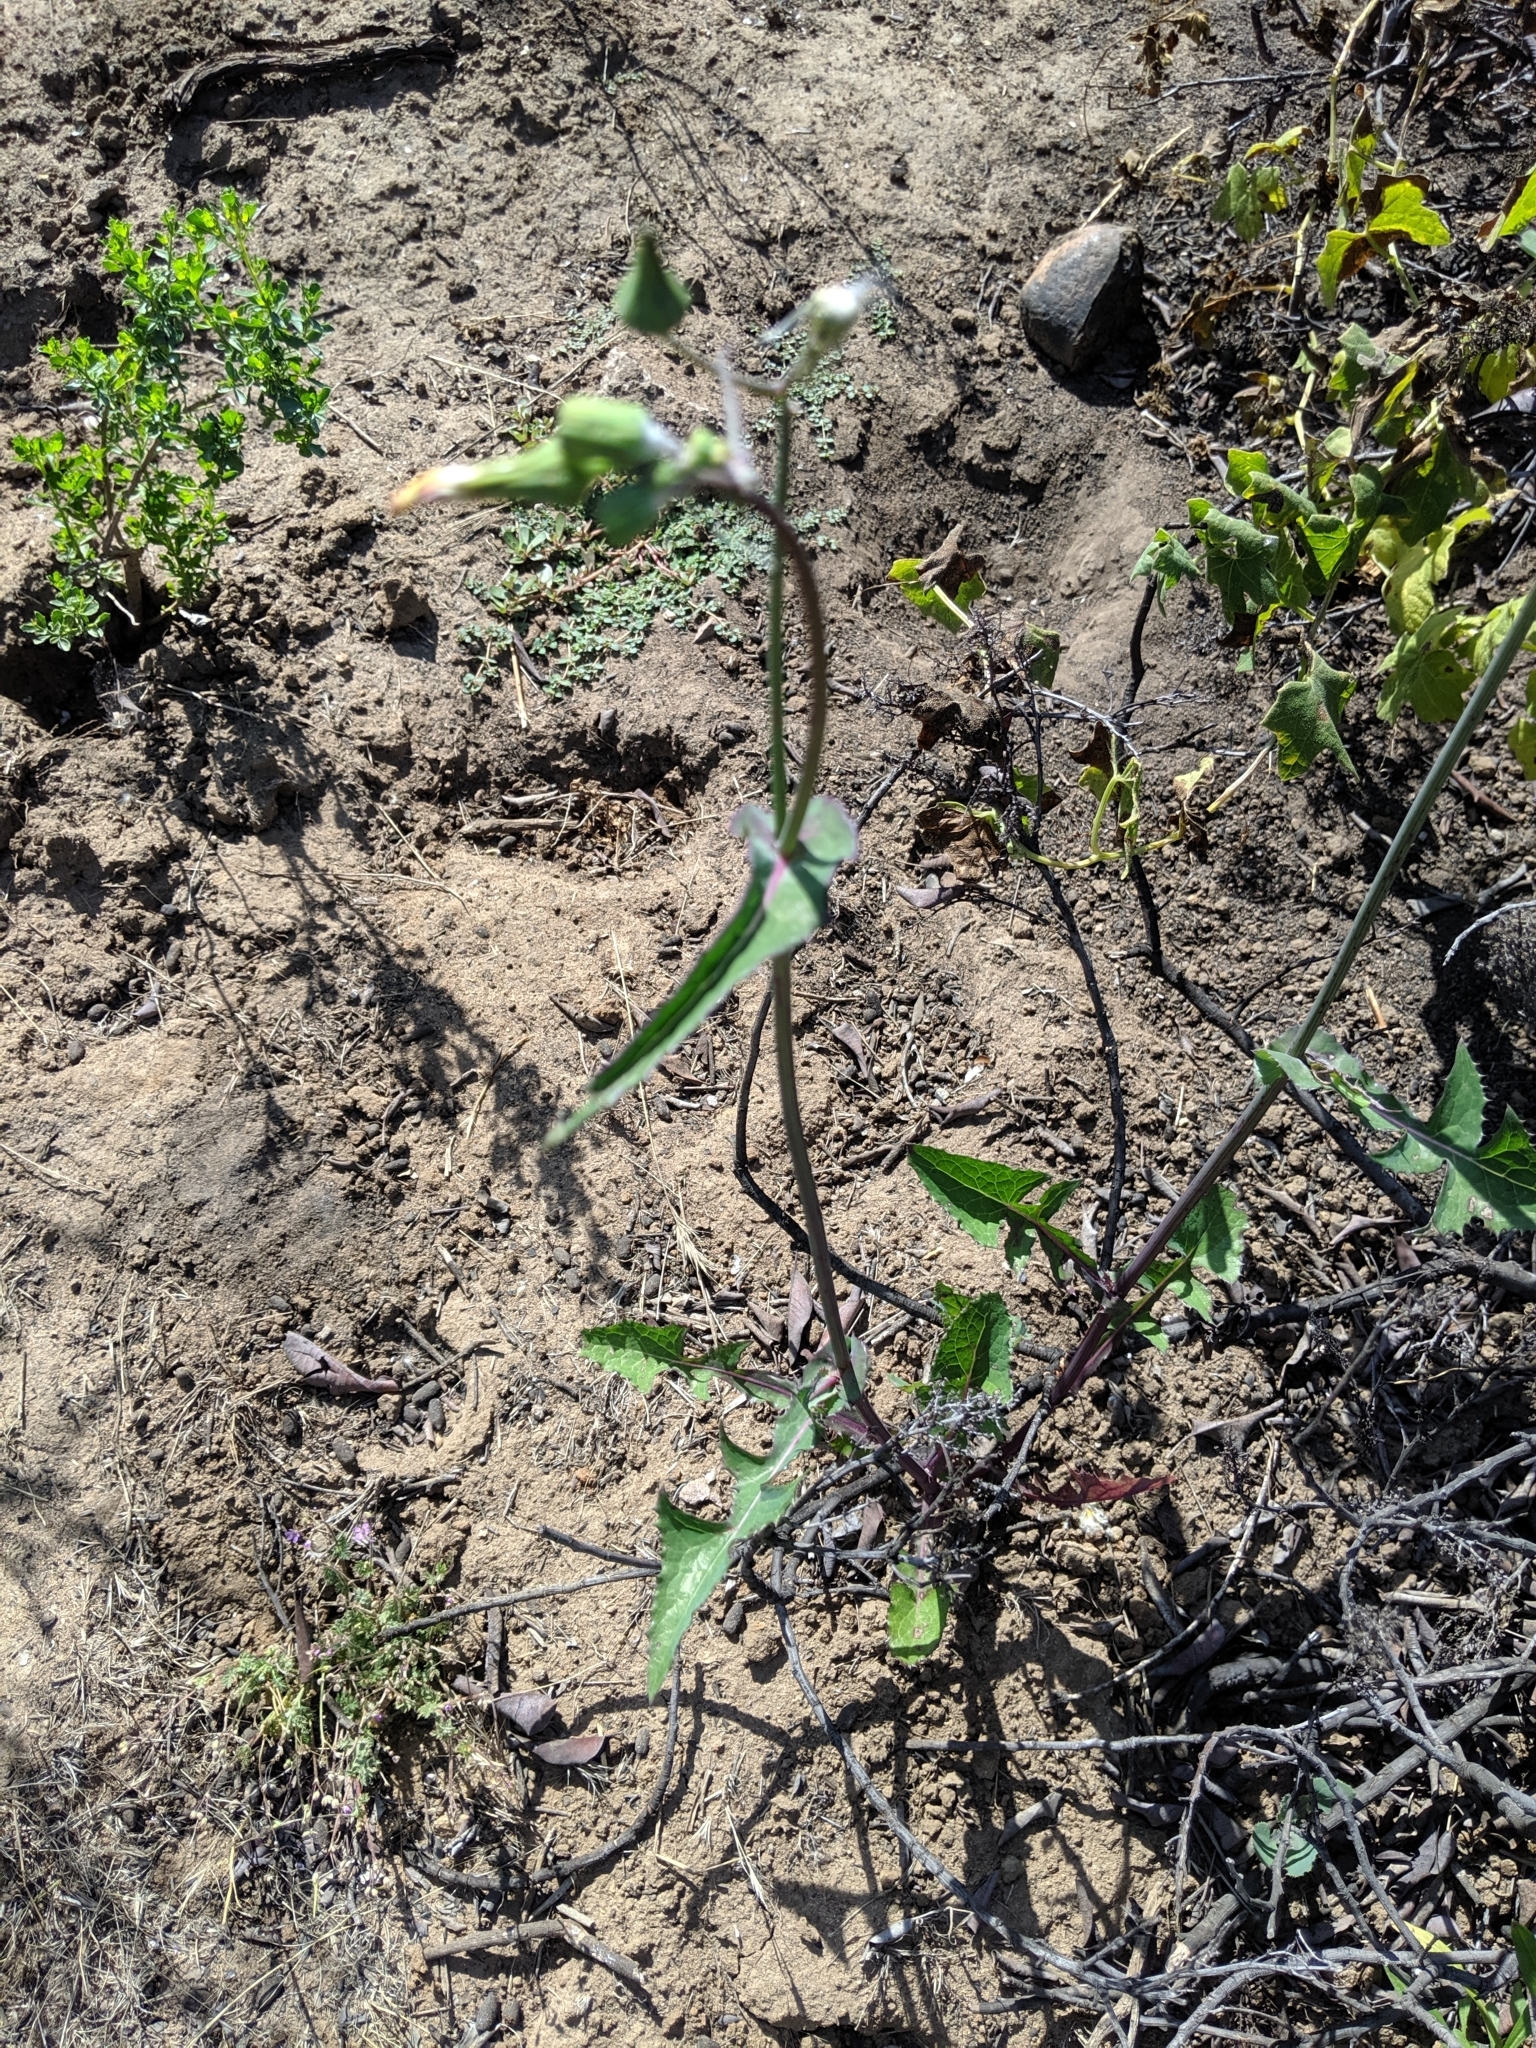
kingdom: Plantae
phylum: Tracheophyta
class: Magnoliopsida
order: Asterales
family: Asteraceae
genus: Sonchus
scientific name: Sonchus oleraceus
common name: Common sowthistle
